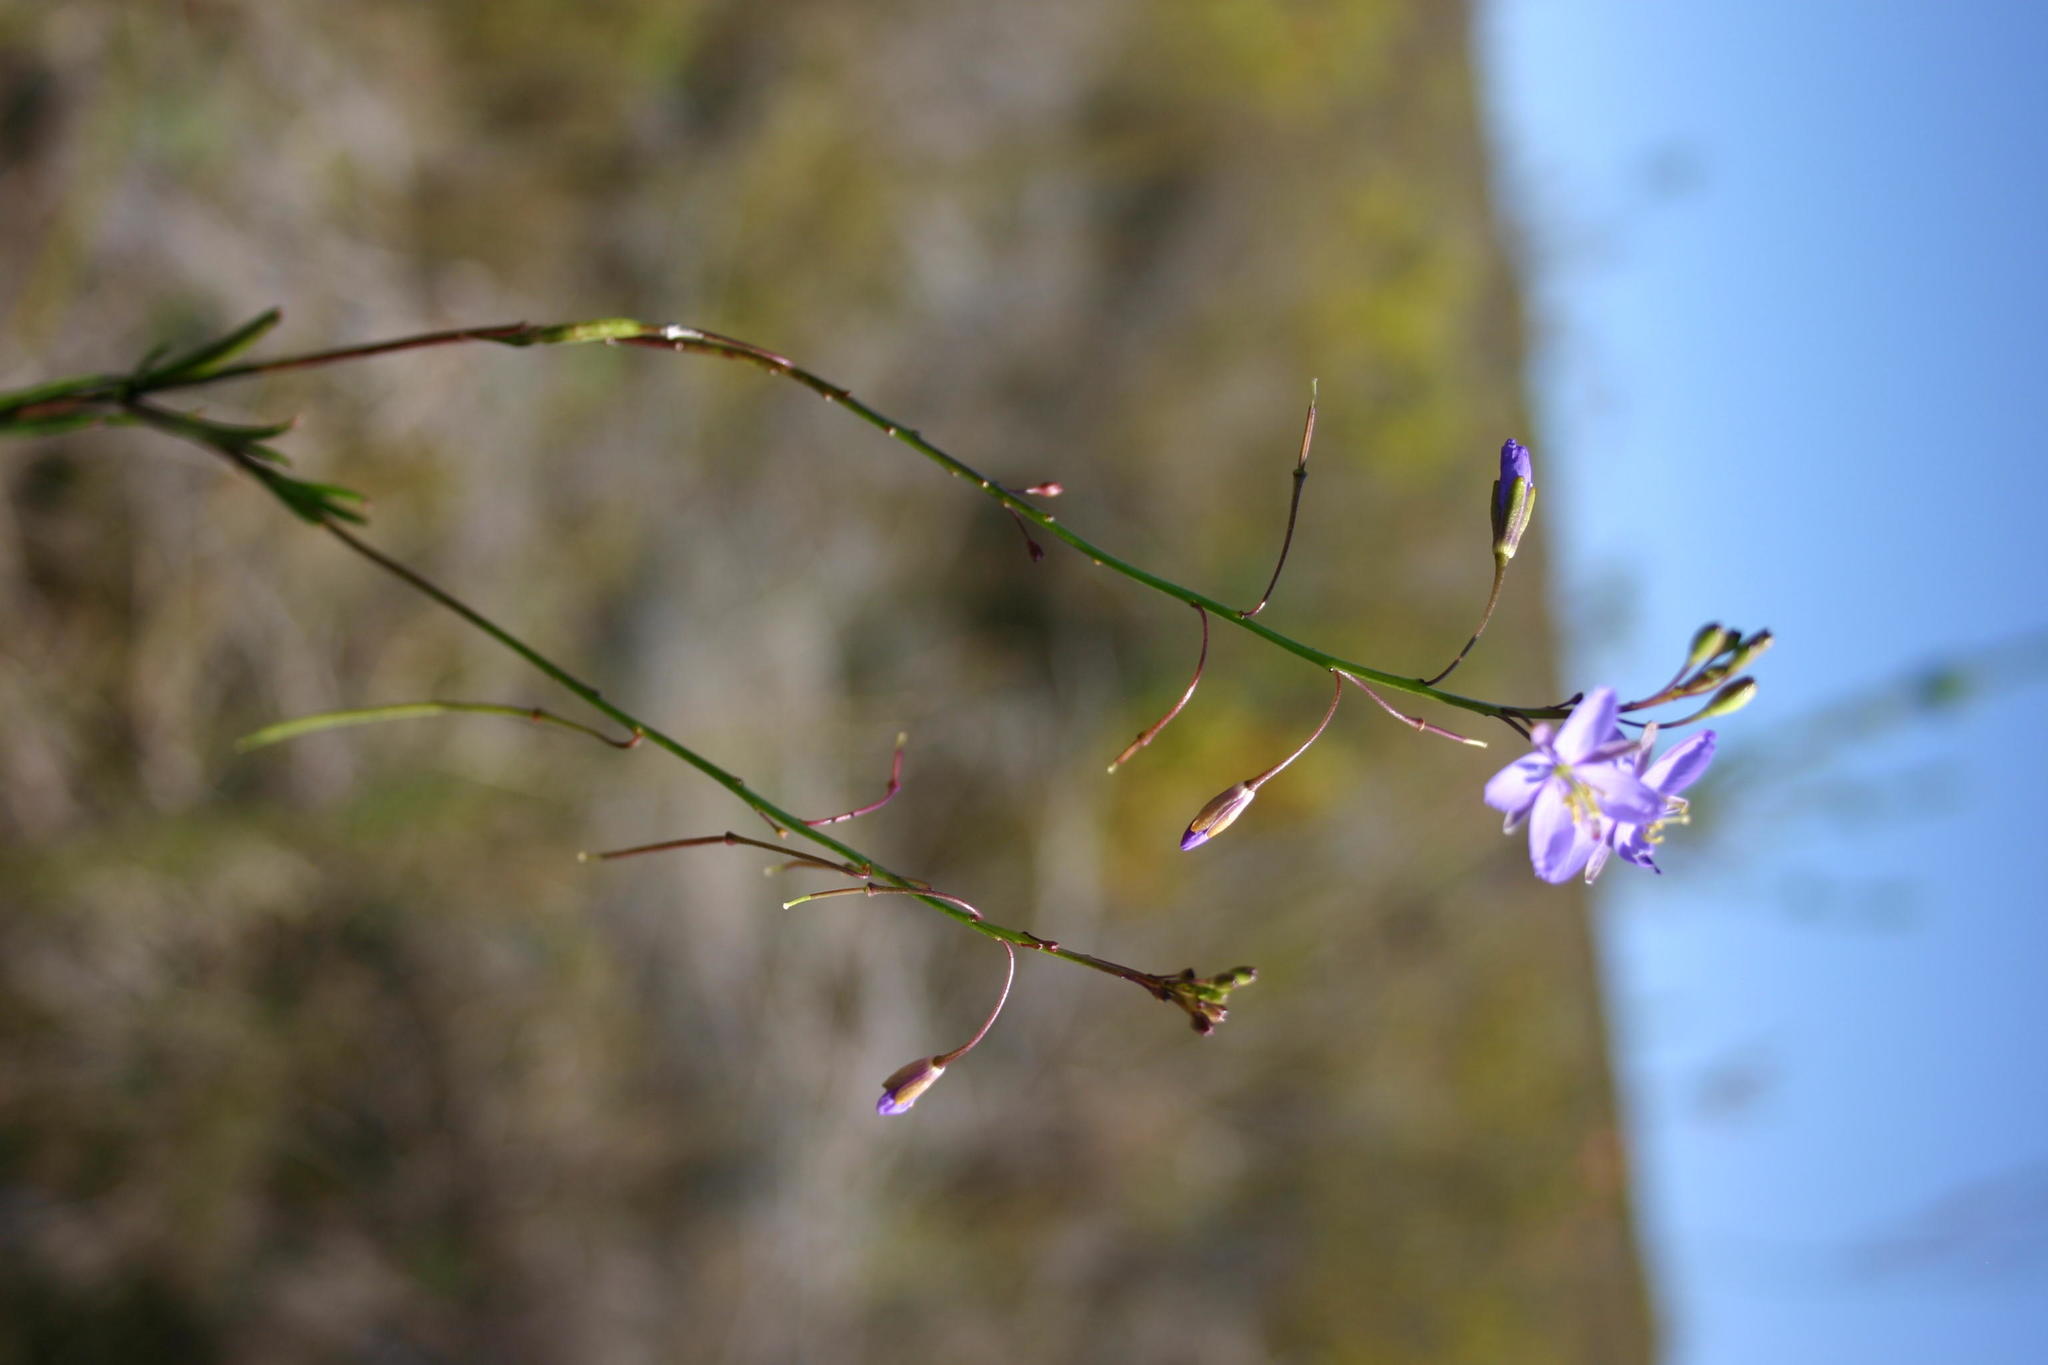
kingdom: Plantae
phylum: Tracheophyta
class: Magnoliopsida
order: Brassicales
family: Brassicaceae
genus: Heliophila
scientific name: Heliophila subulata
